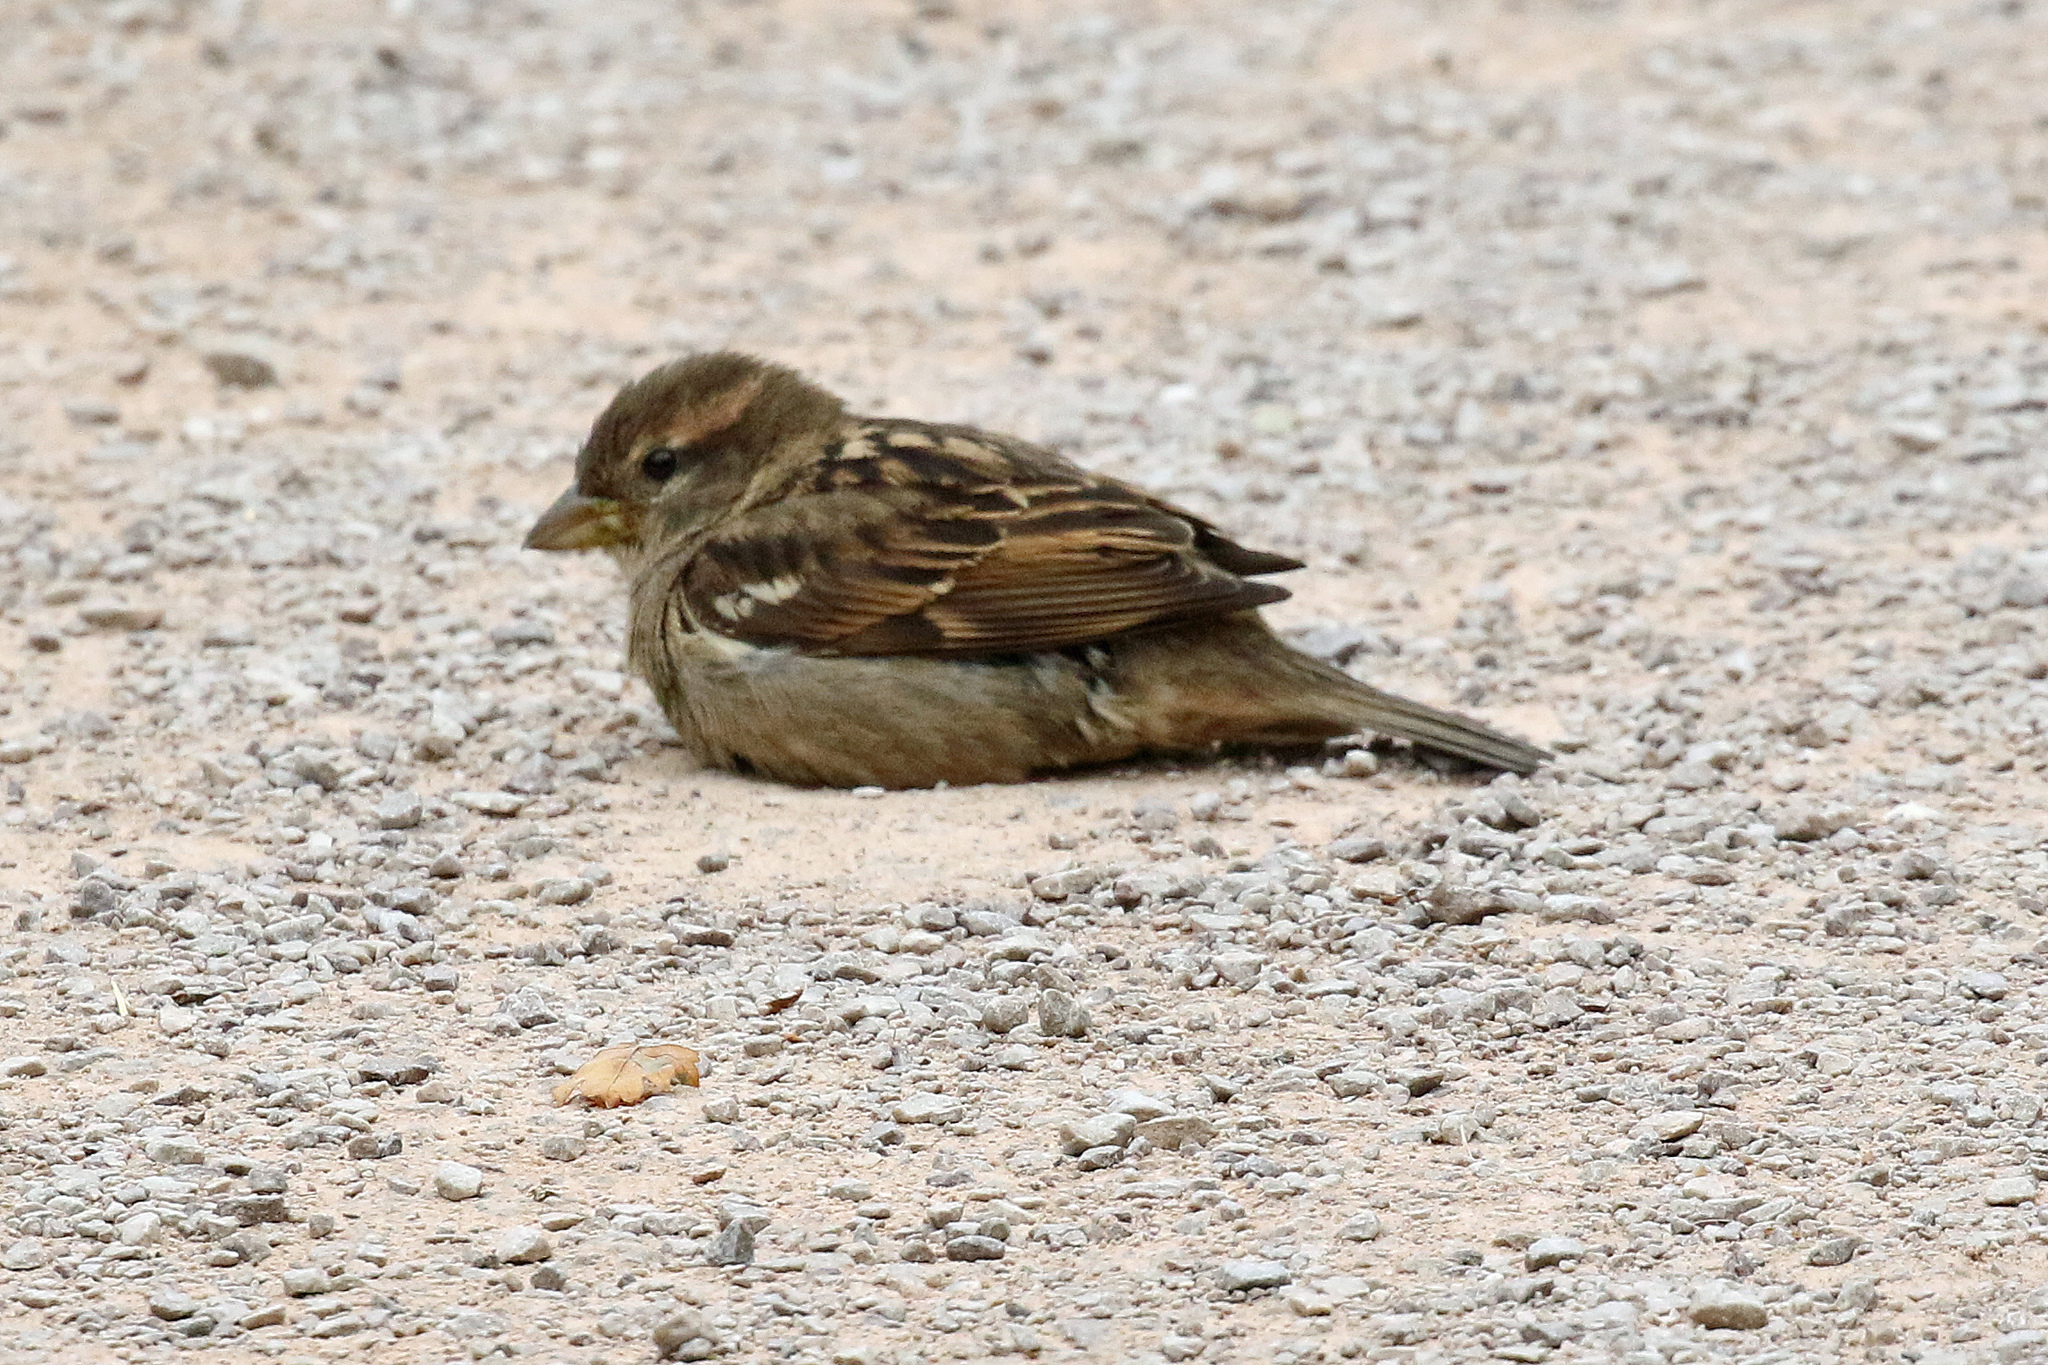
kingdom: Animalia
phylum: Chordata
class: Aves
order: Passeriformes
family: Passeridae
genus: Passer
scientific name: Passer domesticus
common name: House sparrow
